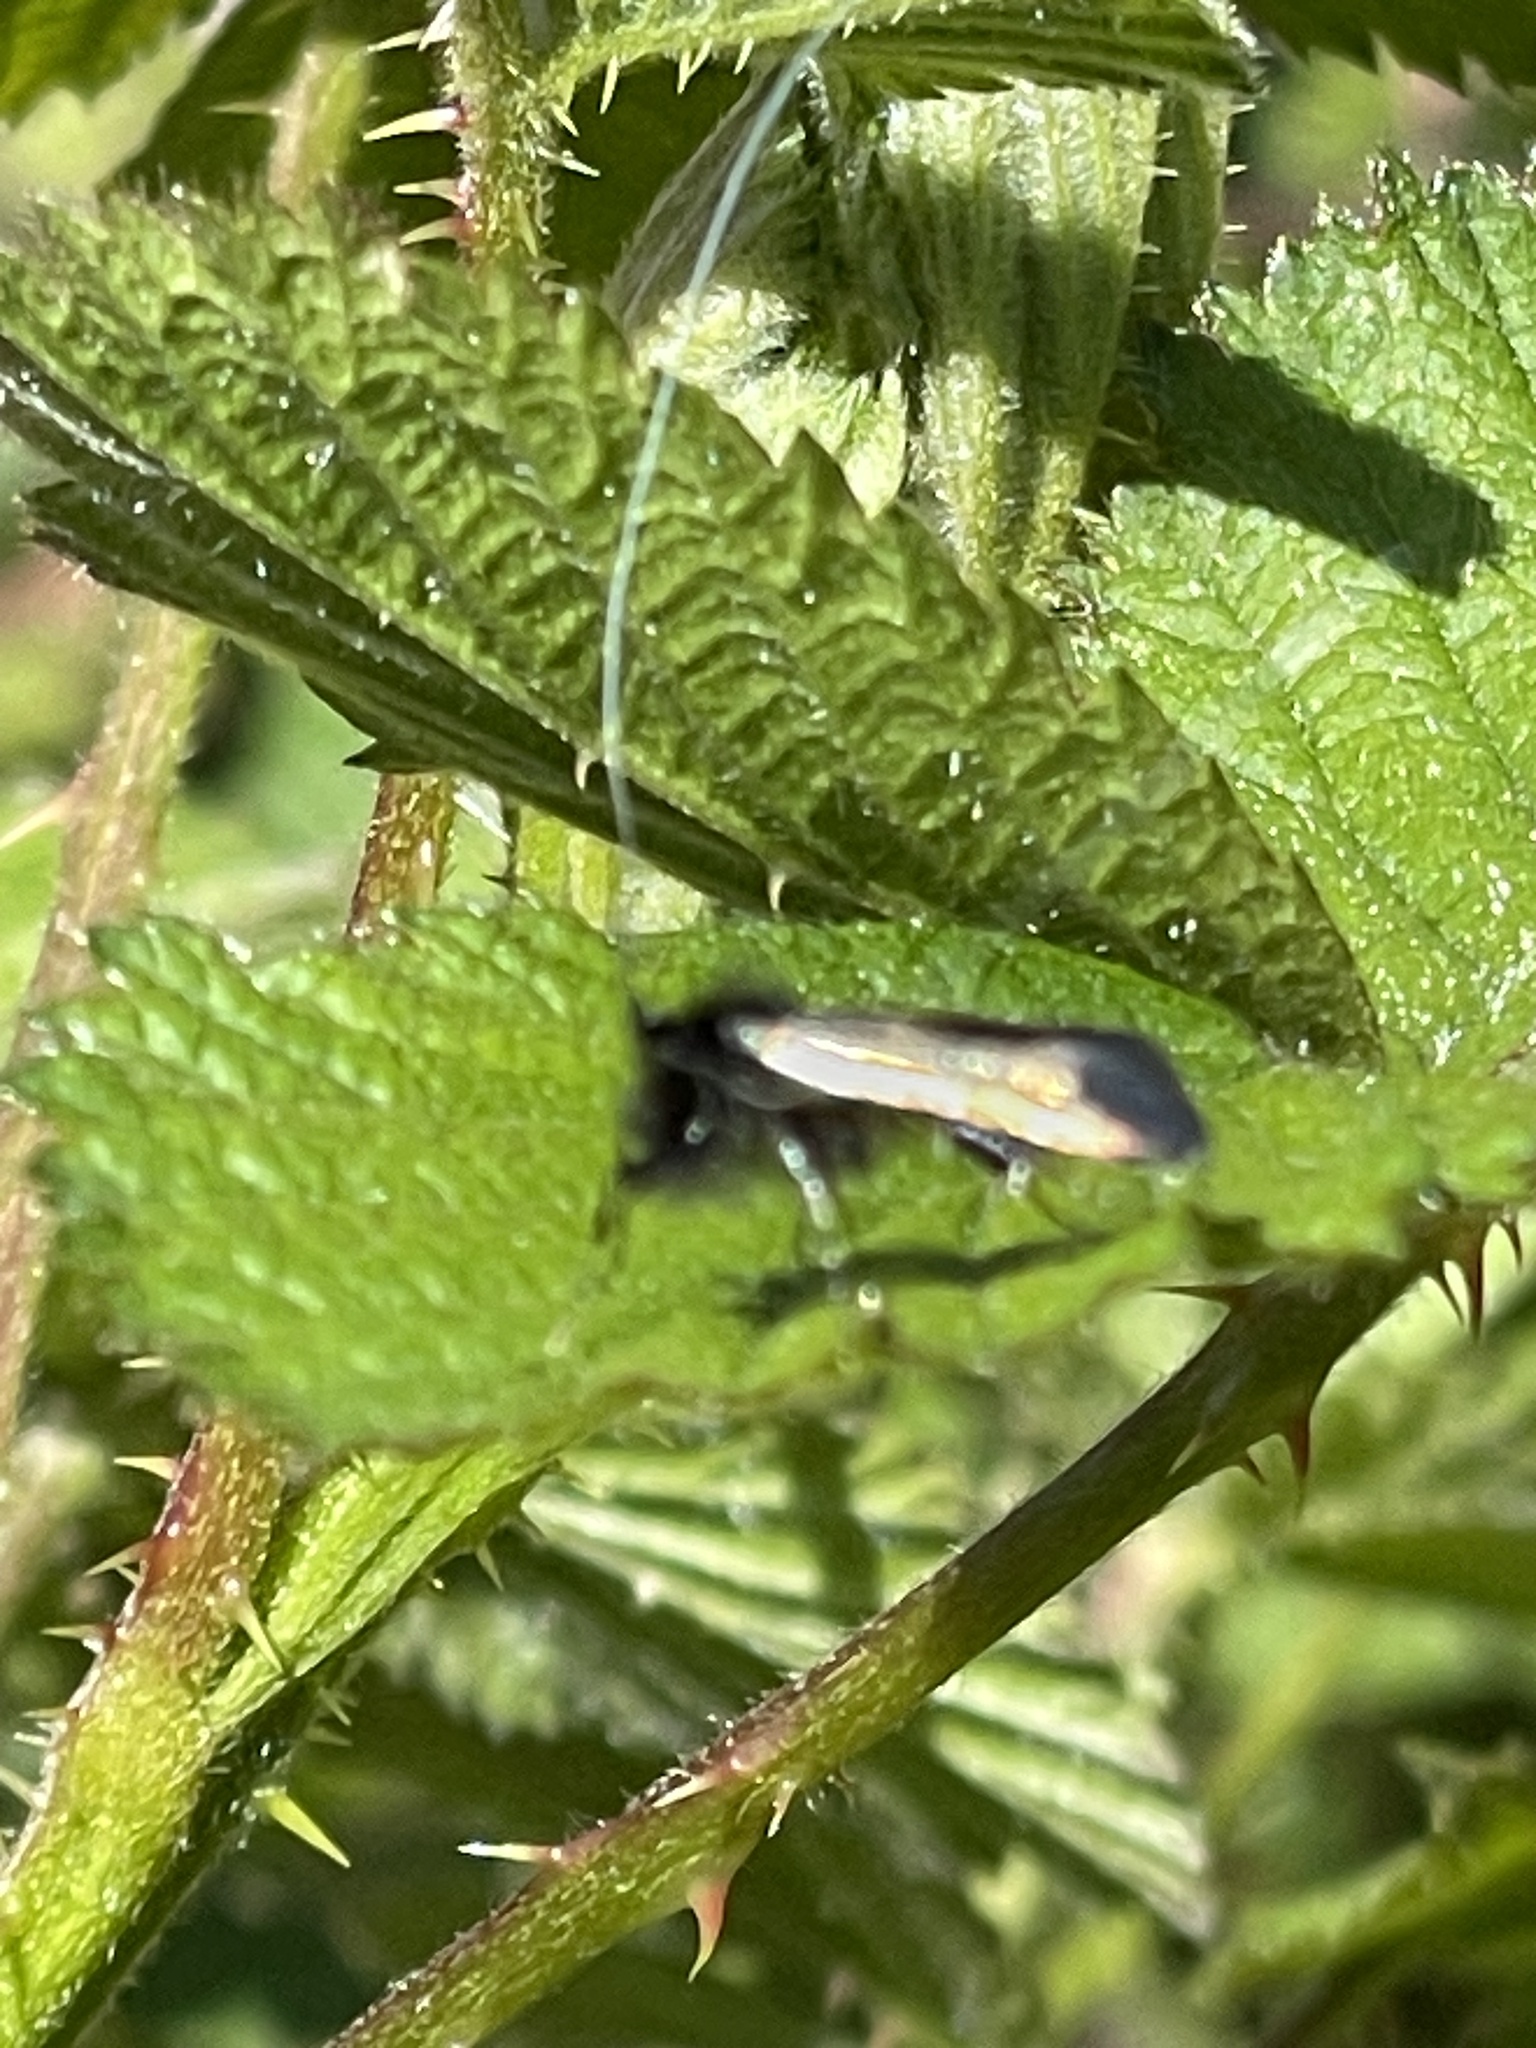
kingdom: Animalia
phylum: Arthropoda
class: Insecta
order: Lepidoptera
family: Adelidae
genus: Adela
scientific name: Adela viridella
